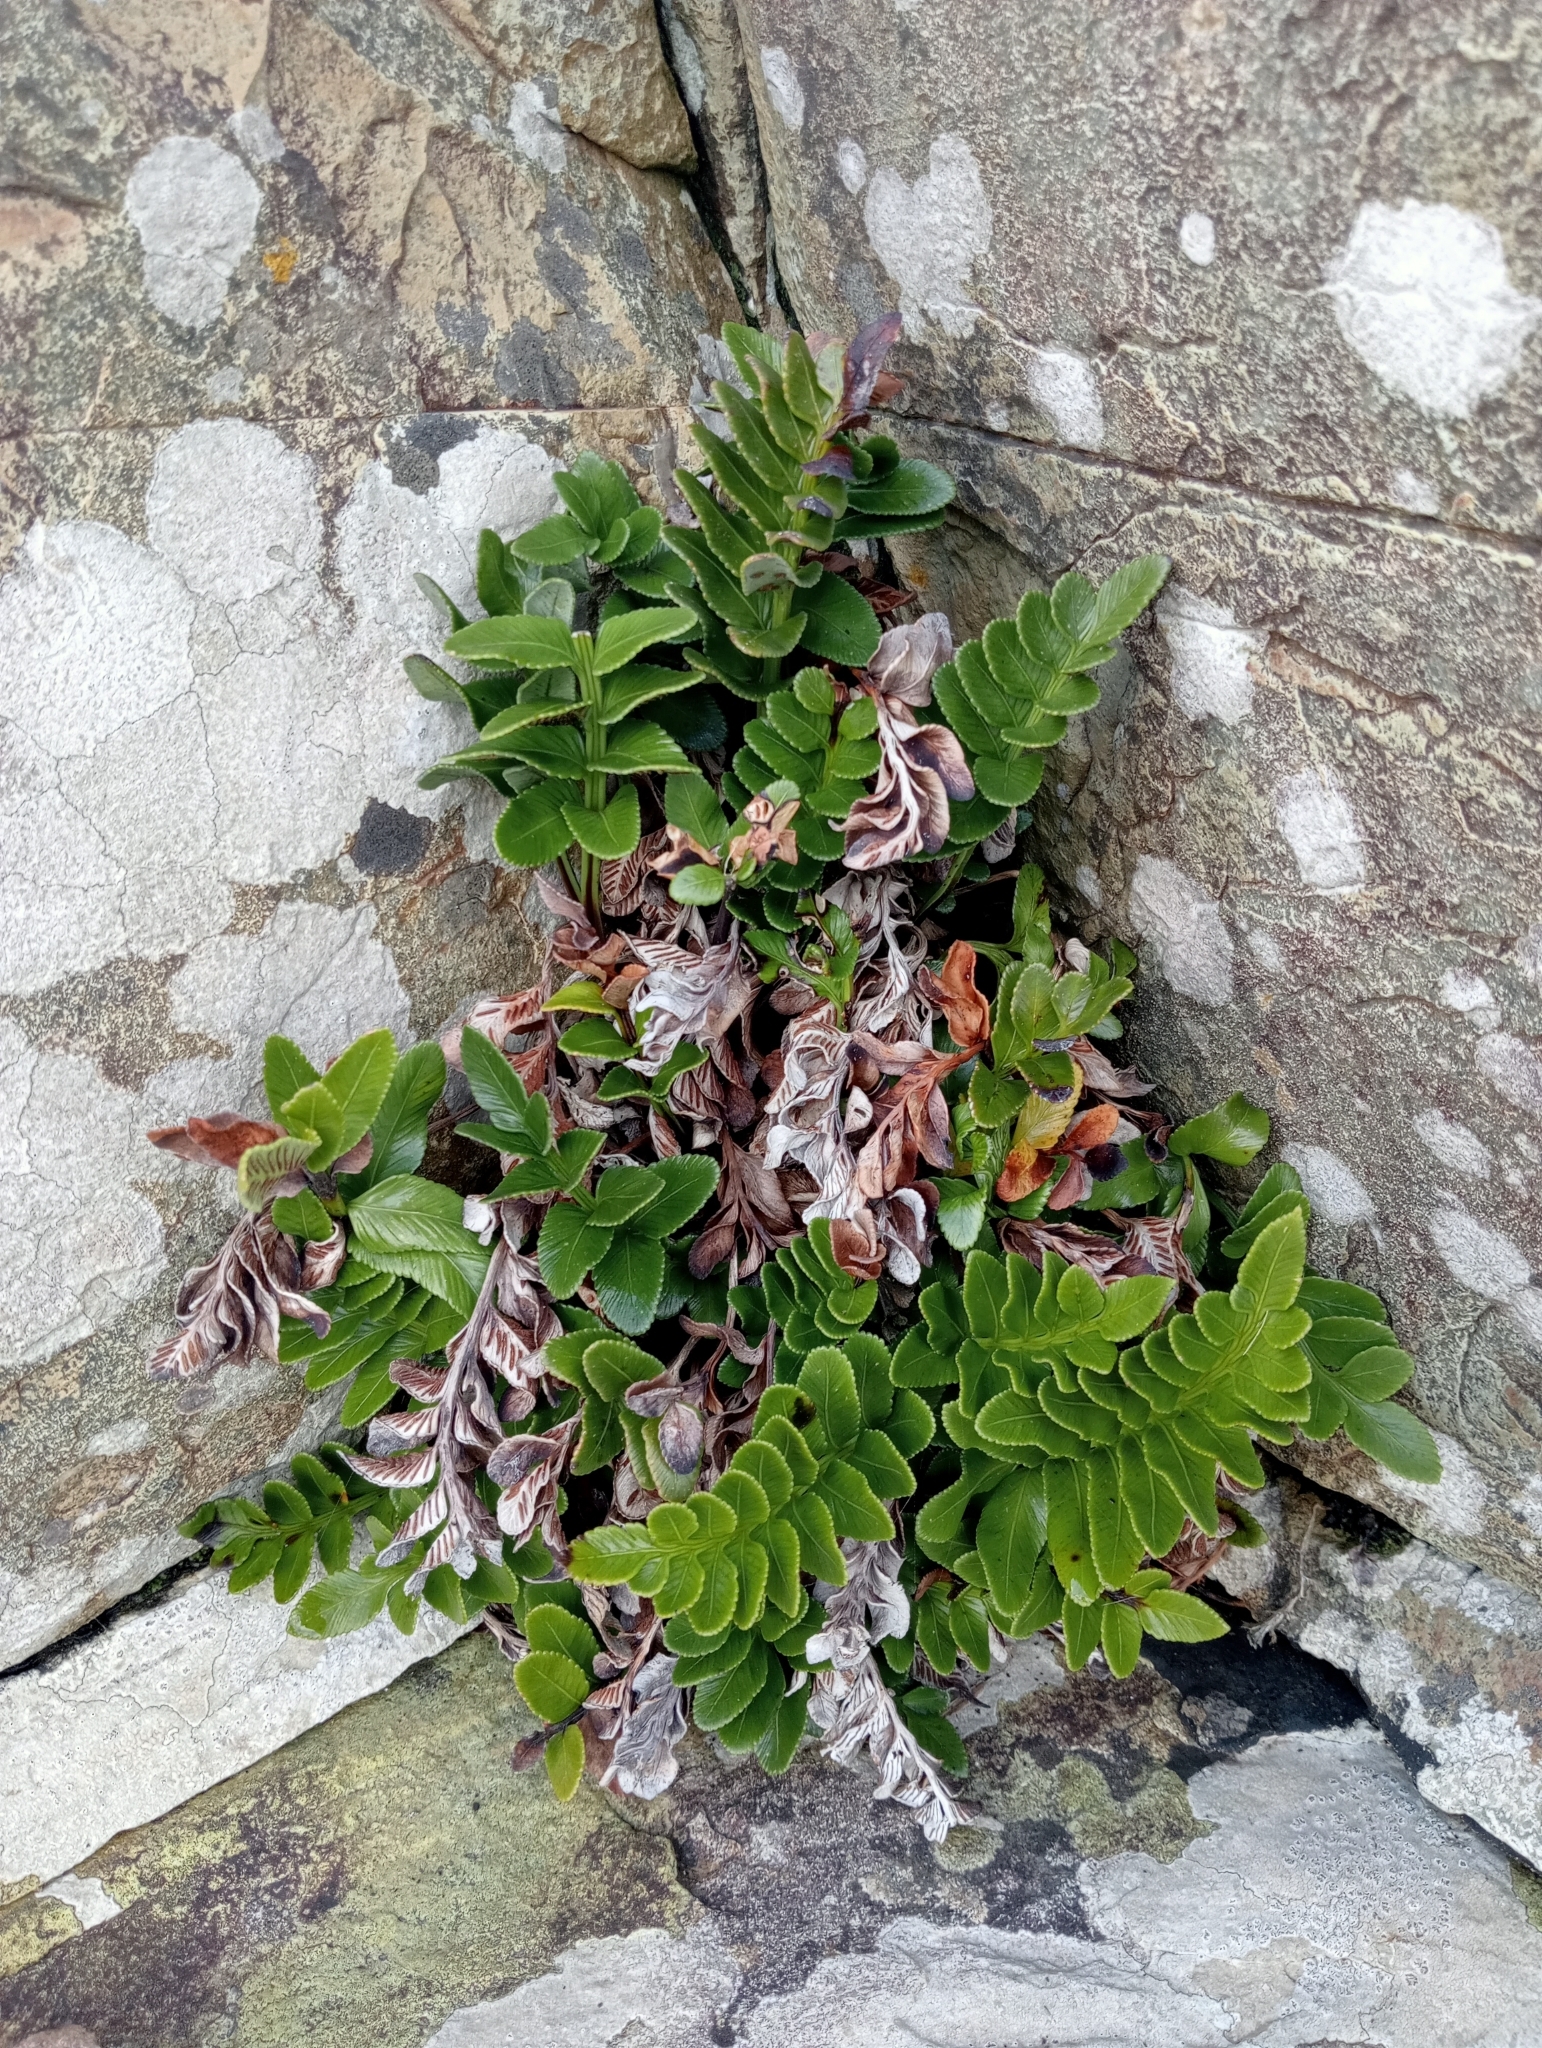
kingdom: Plantae
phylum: Tracheophyta
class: Polypodiopsida
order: Polypodiales
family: Aspleniaceae
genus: Asplenium
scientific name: Asplenium obtusatum
